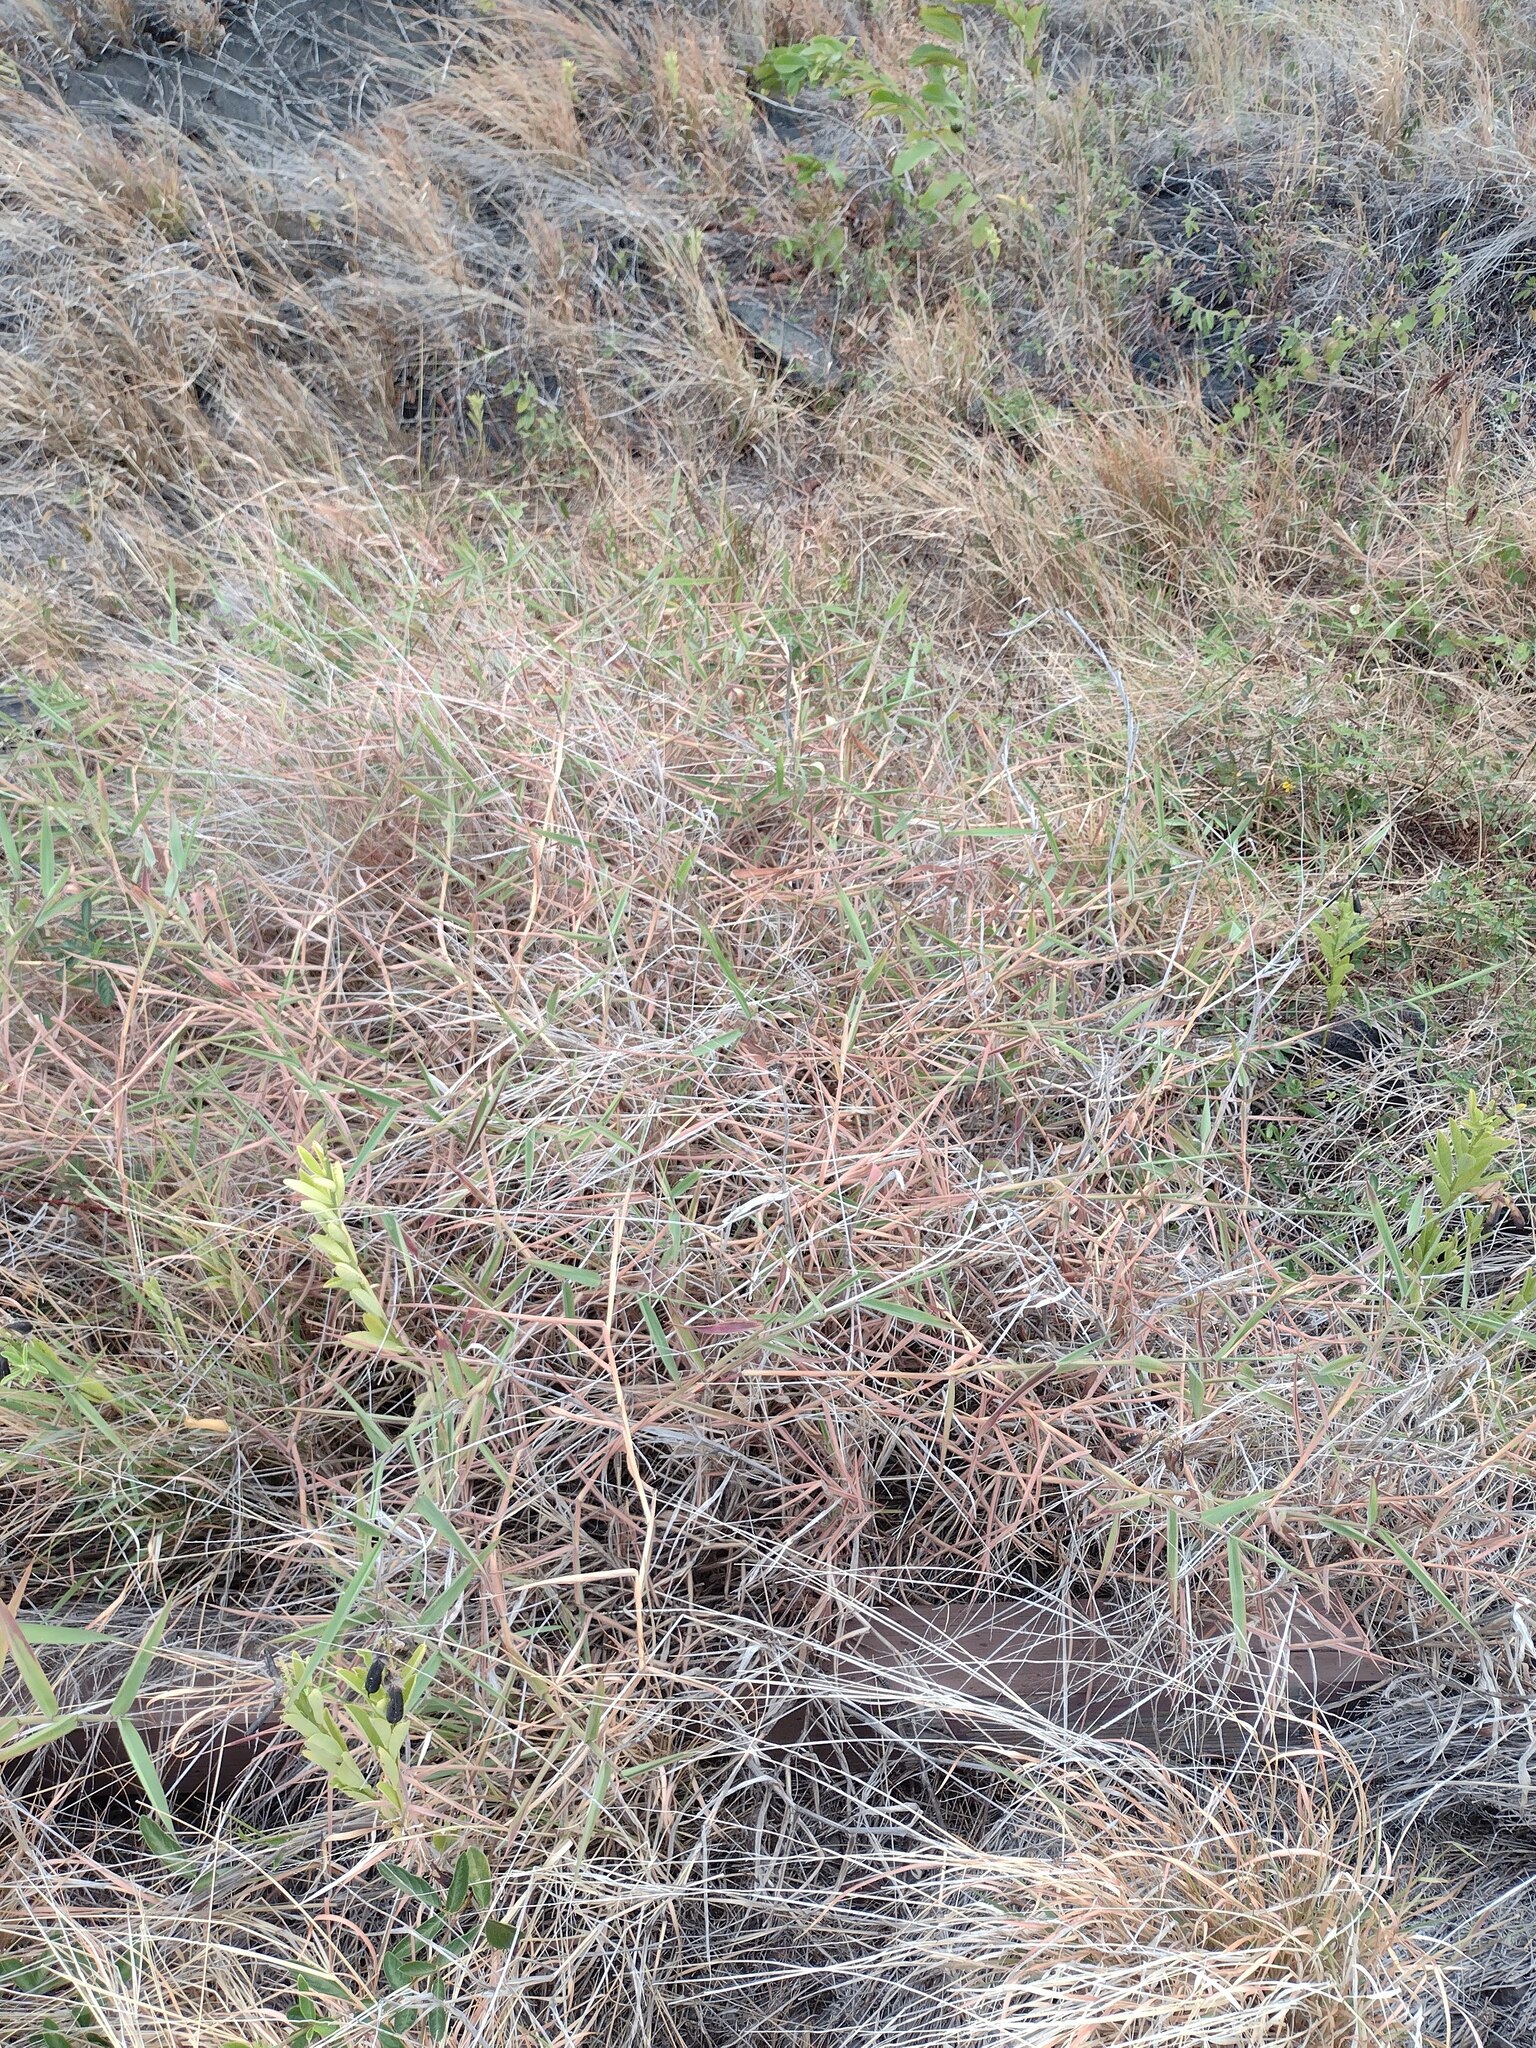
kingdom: Plantae
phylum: Tracheophyta
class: Liliopsida
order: Poales
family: Poaceae
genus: Melinis
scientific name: Melinis minutiflora
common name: Molassesgrass
